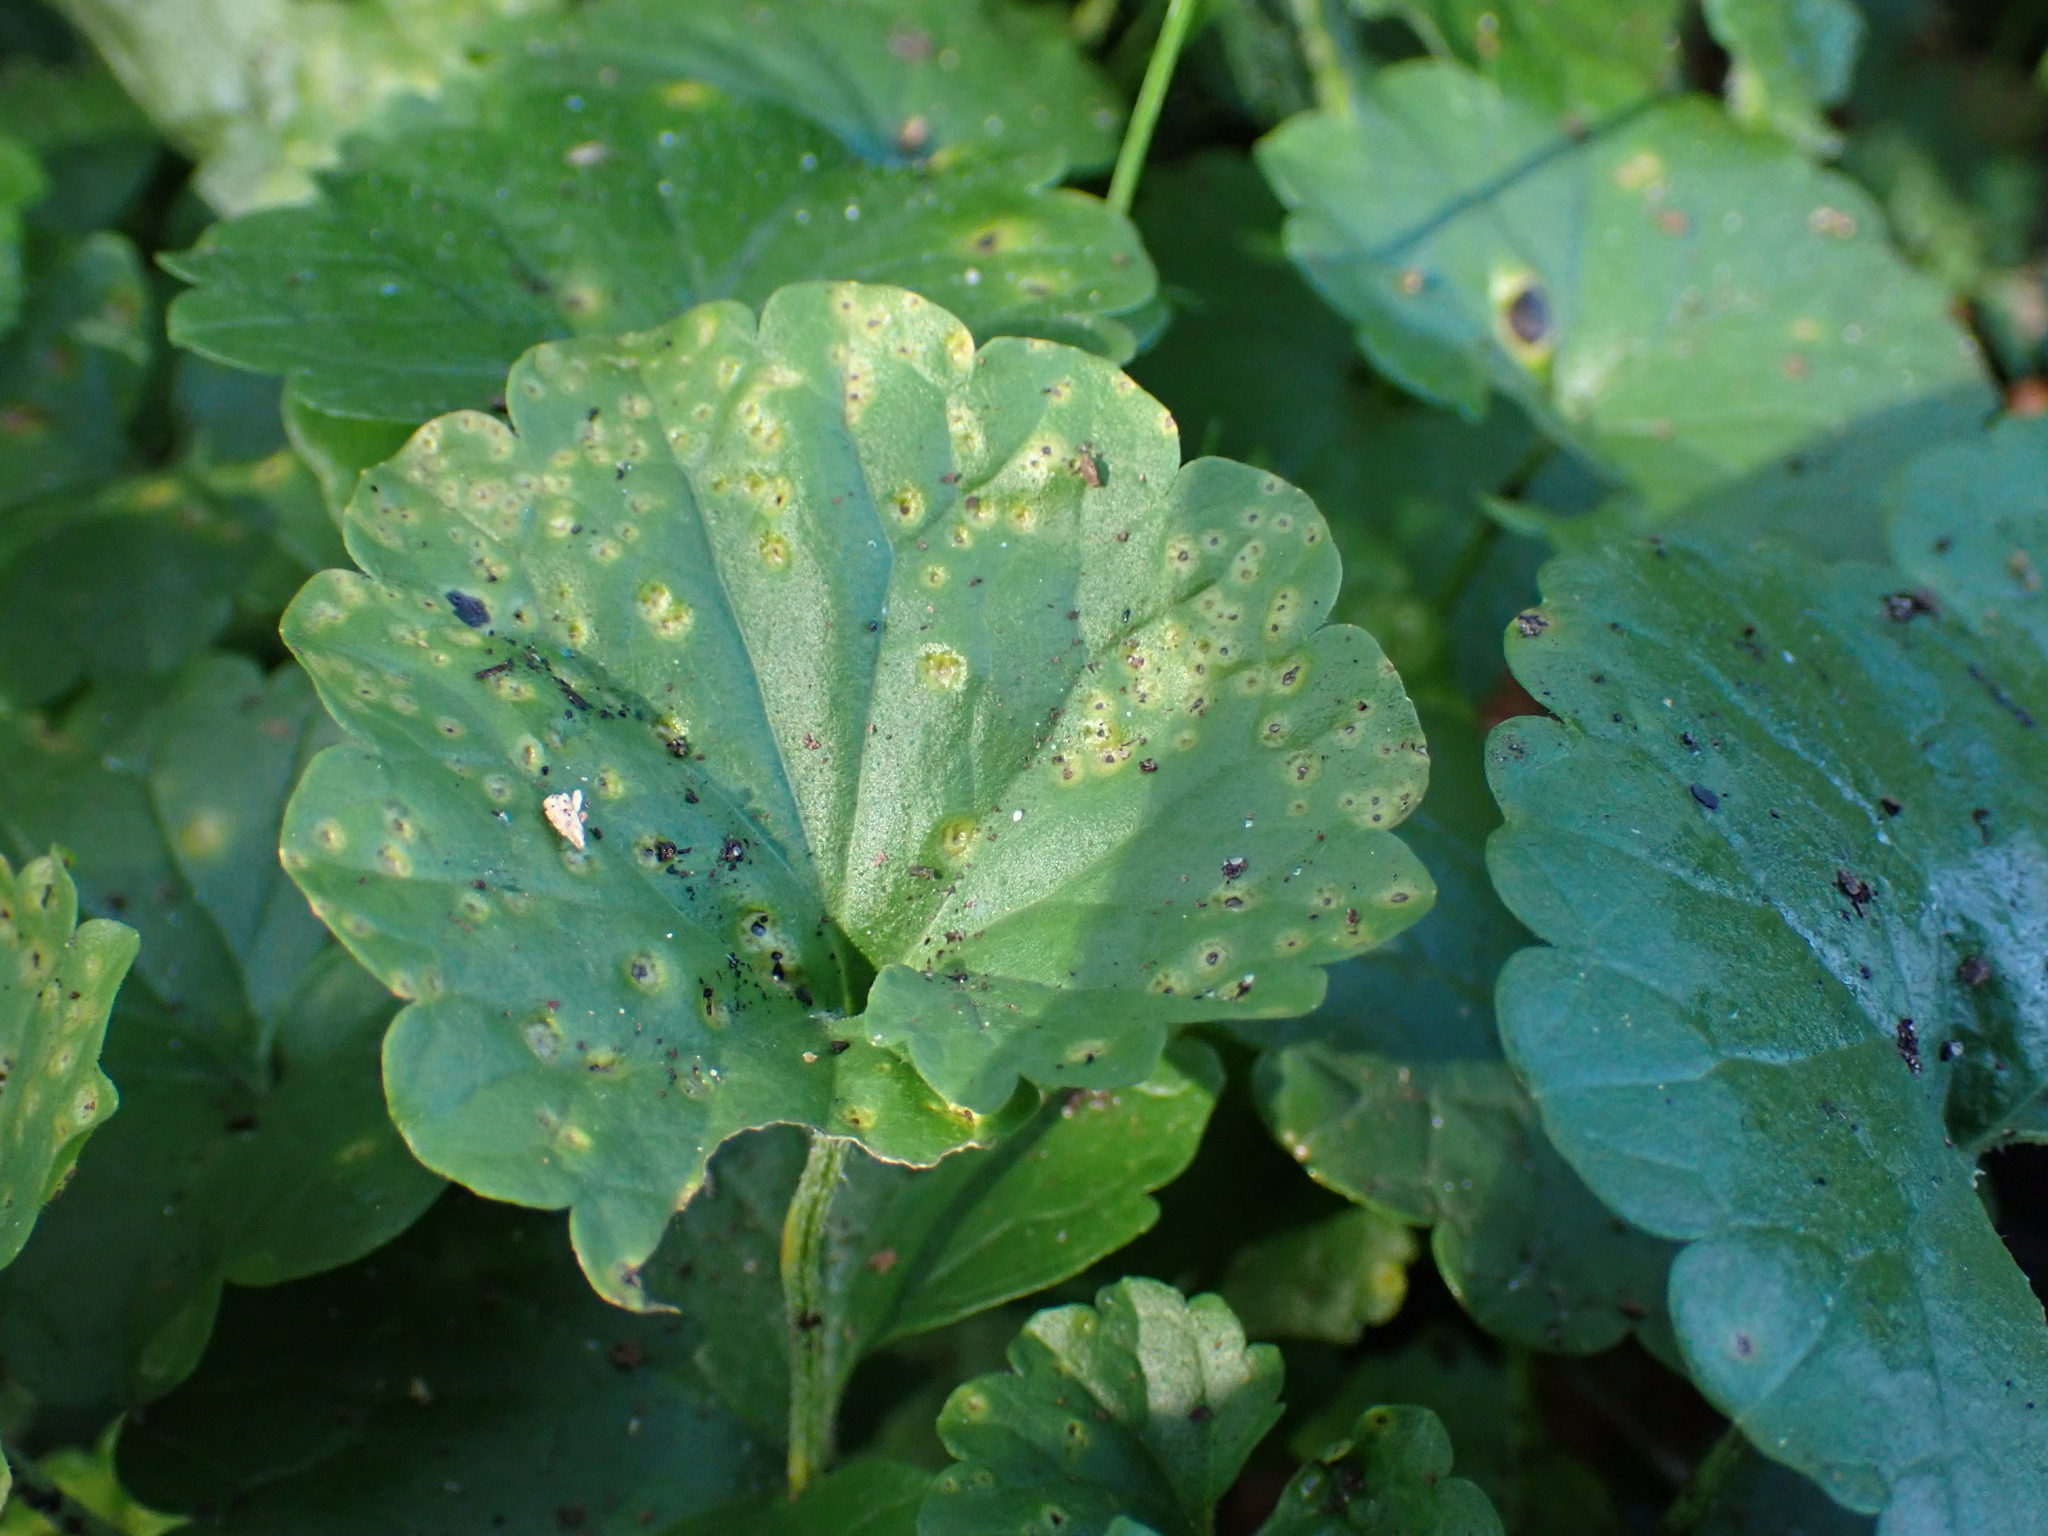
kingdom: Fungi
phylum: Basidiomycota
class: Pucciniomycetes
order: Pucciniales
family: Pucciniaceae
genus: Puccinia
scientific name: Puccinia glechomatis
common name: Ground ivy rust
